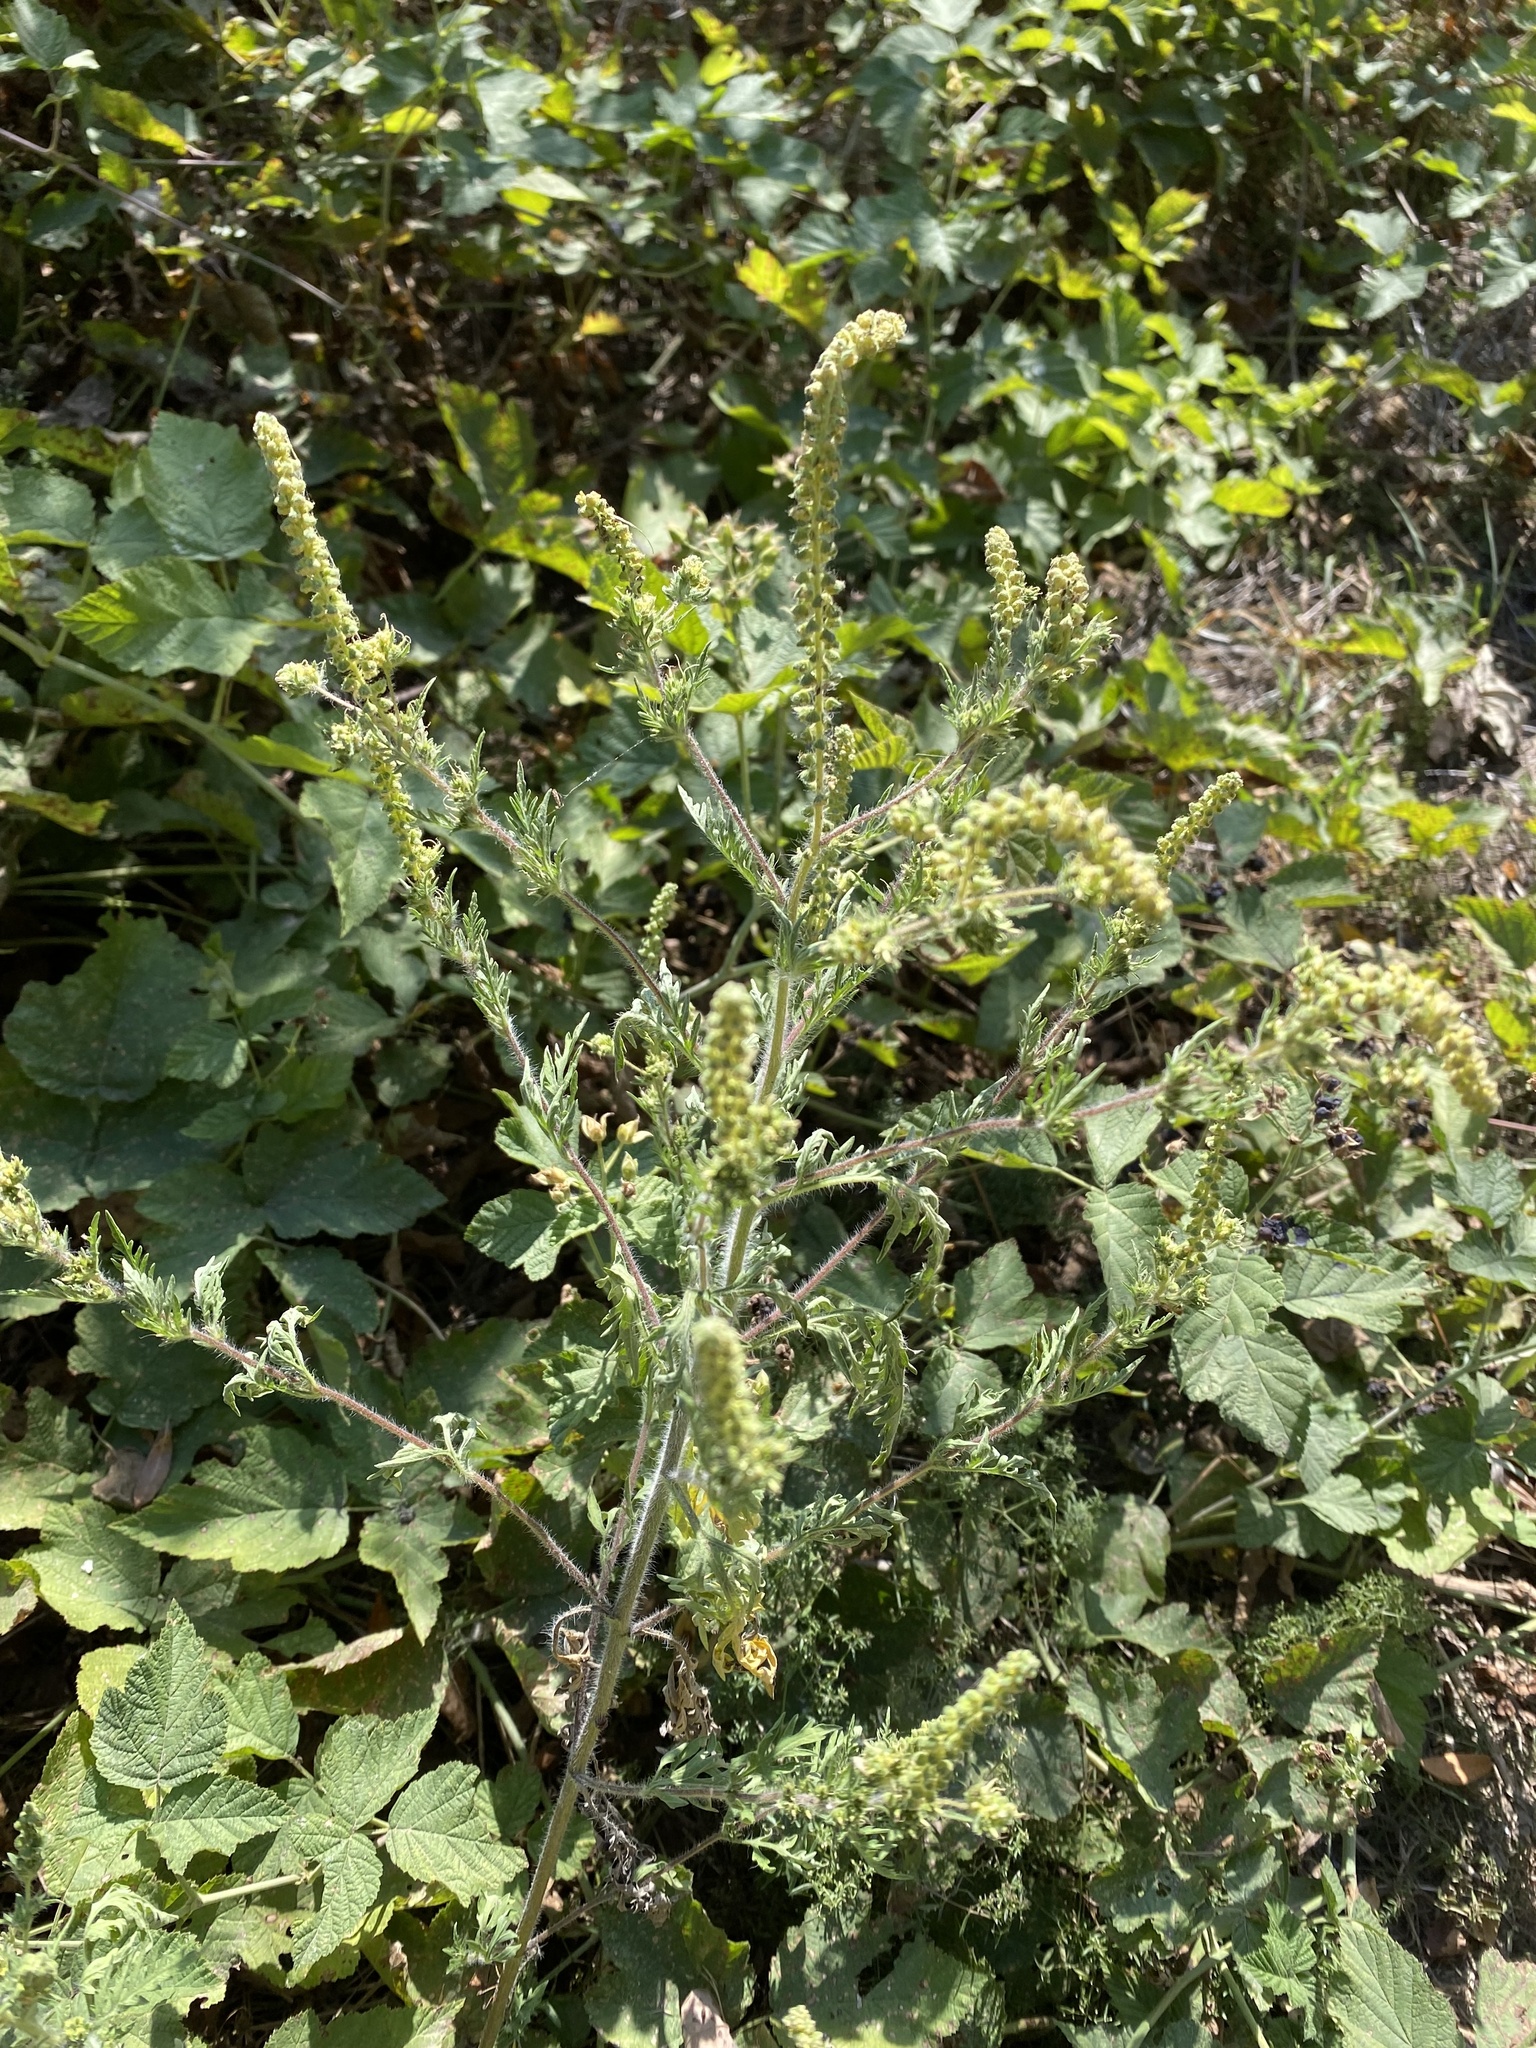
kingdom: Plantae
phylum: Tracheophyta
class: Magnoliopsida
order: Asterales
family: Asteraceae
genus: Ambrosia
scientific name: Ambrosia artemisiifolia
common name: Annual ragweed
